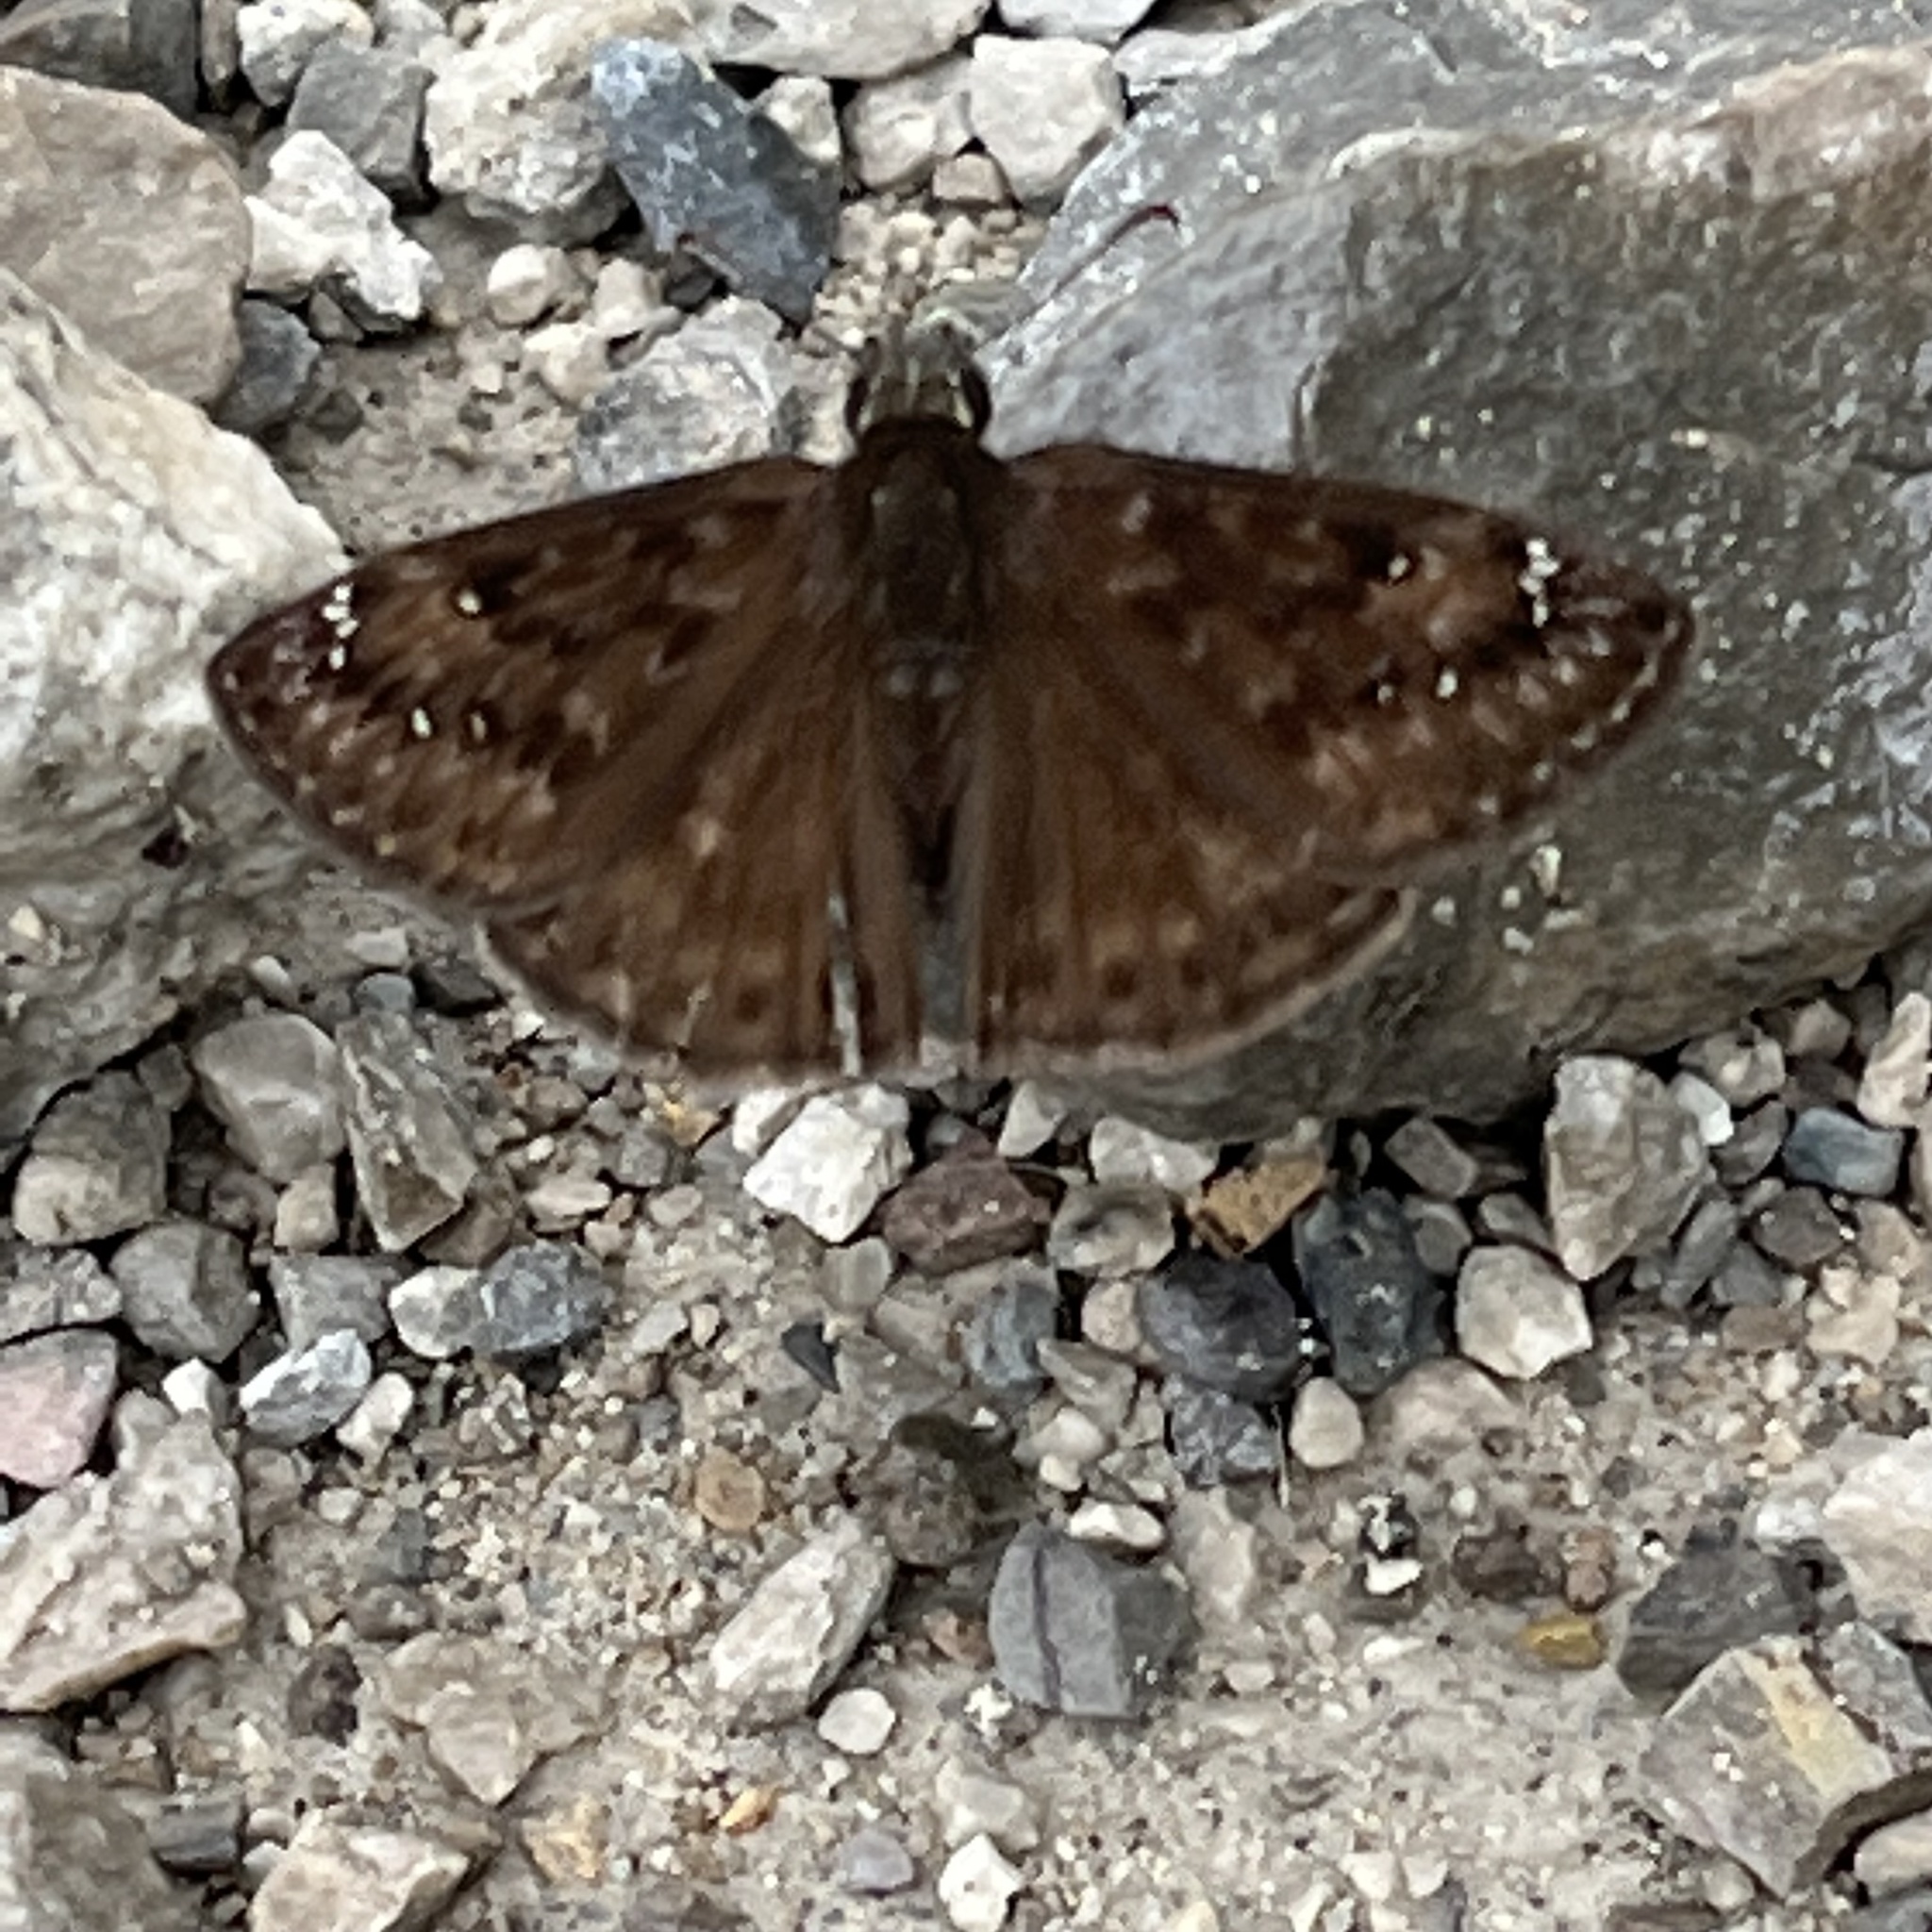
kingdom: Animalia
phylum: Arthropoda
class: Insecta
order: Lepidoptera
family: Hesperiidae
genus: Erynnis
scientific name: Erynnis horatius
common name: Horace's duskywing
